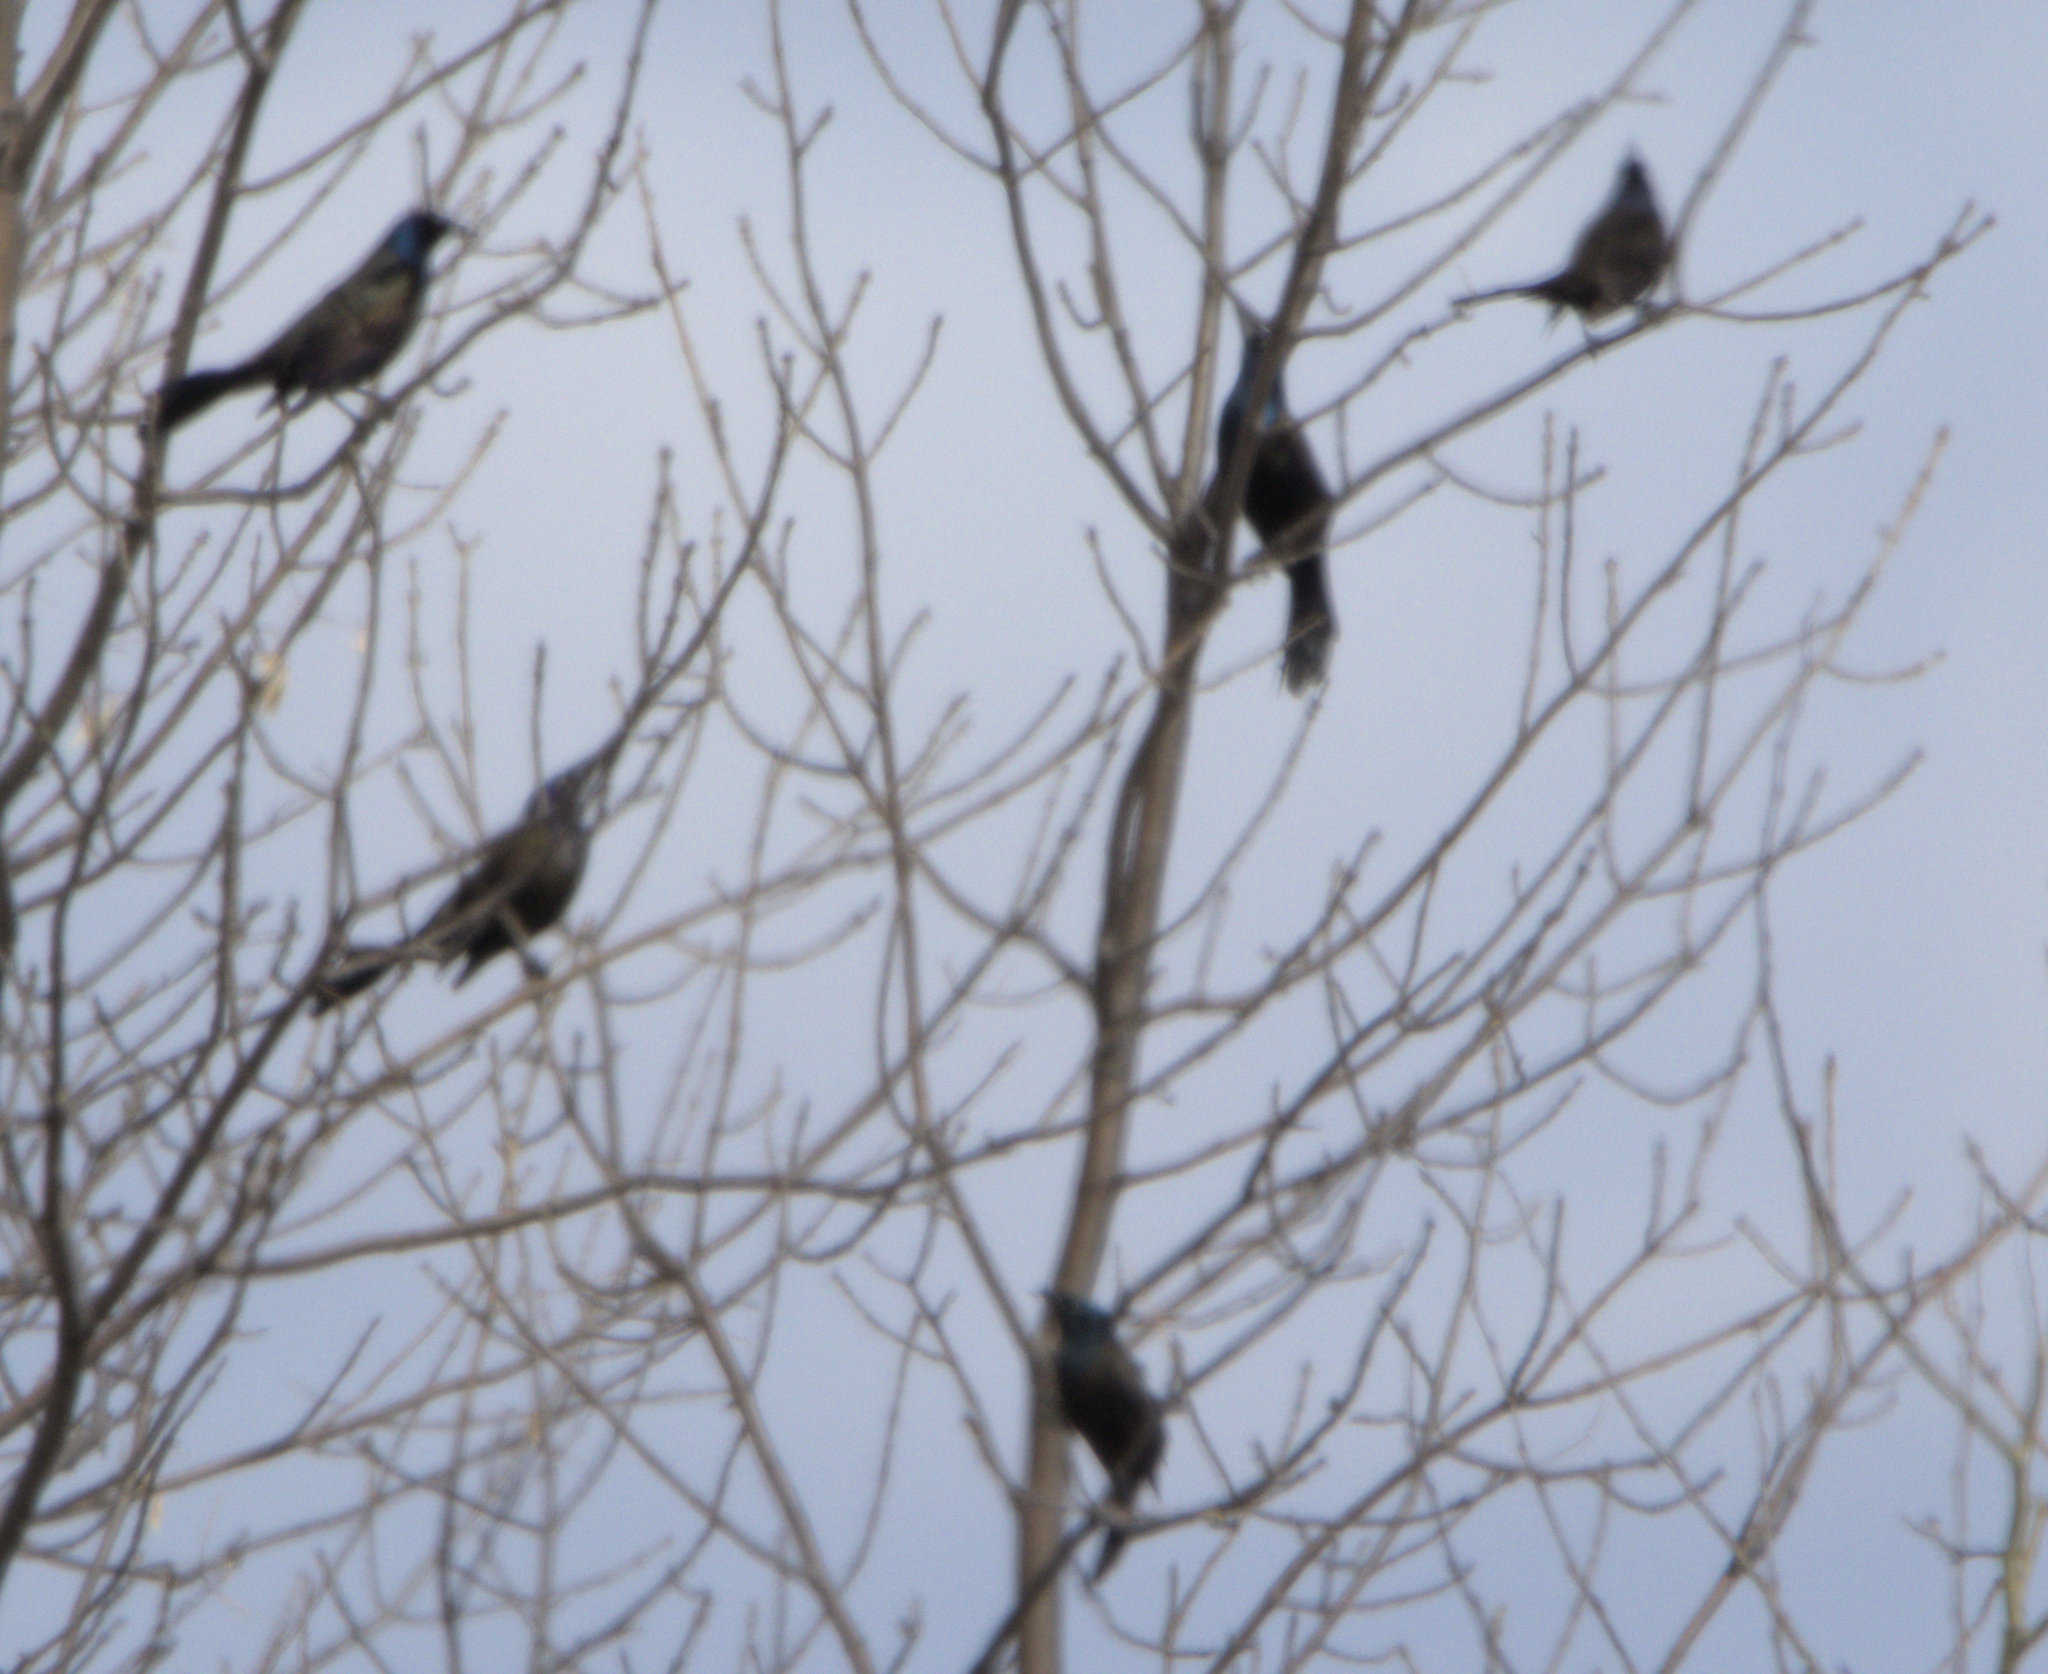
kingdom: Animalia
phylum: Chordata
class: Aves
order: Passeriformes
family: Icteridae
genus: Quiscalus
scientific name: Quiscalus quiscula
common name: Common grackle
